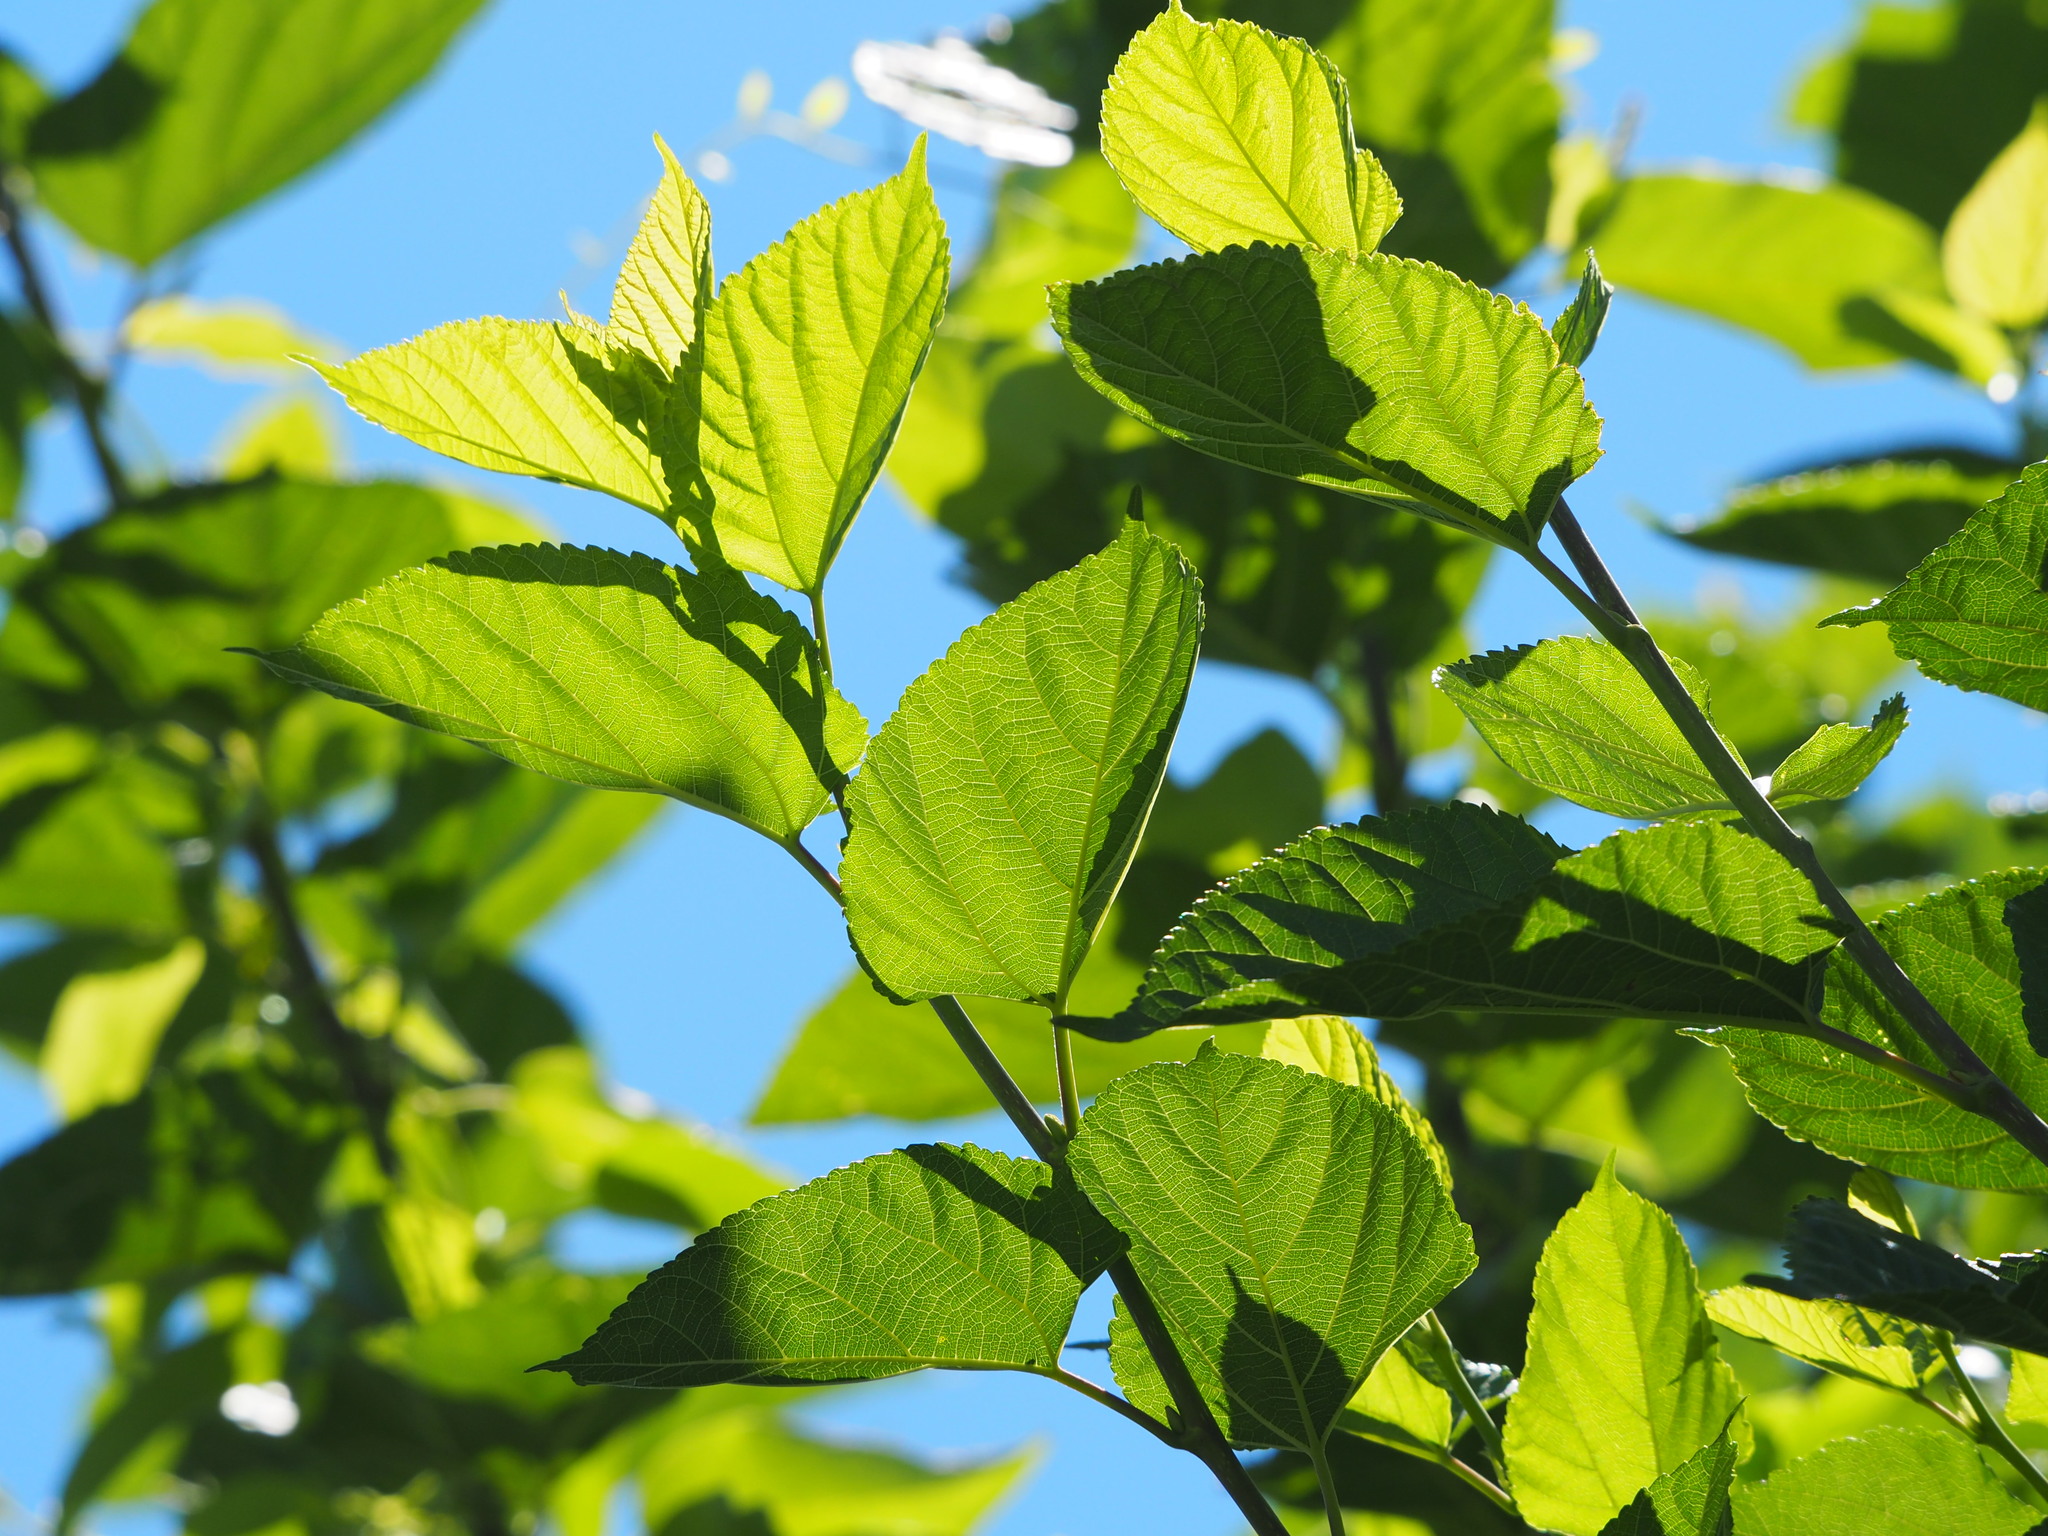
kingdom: Plantae
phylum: Tracheophyta
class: Magnoliopsida
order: Rosales
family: Moraceae
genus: Morus
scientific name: Morus alba
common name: White mulberry
